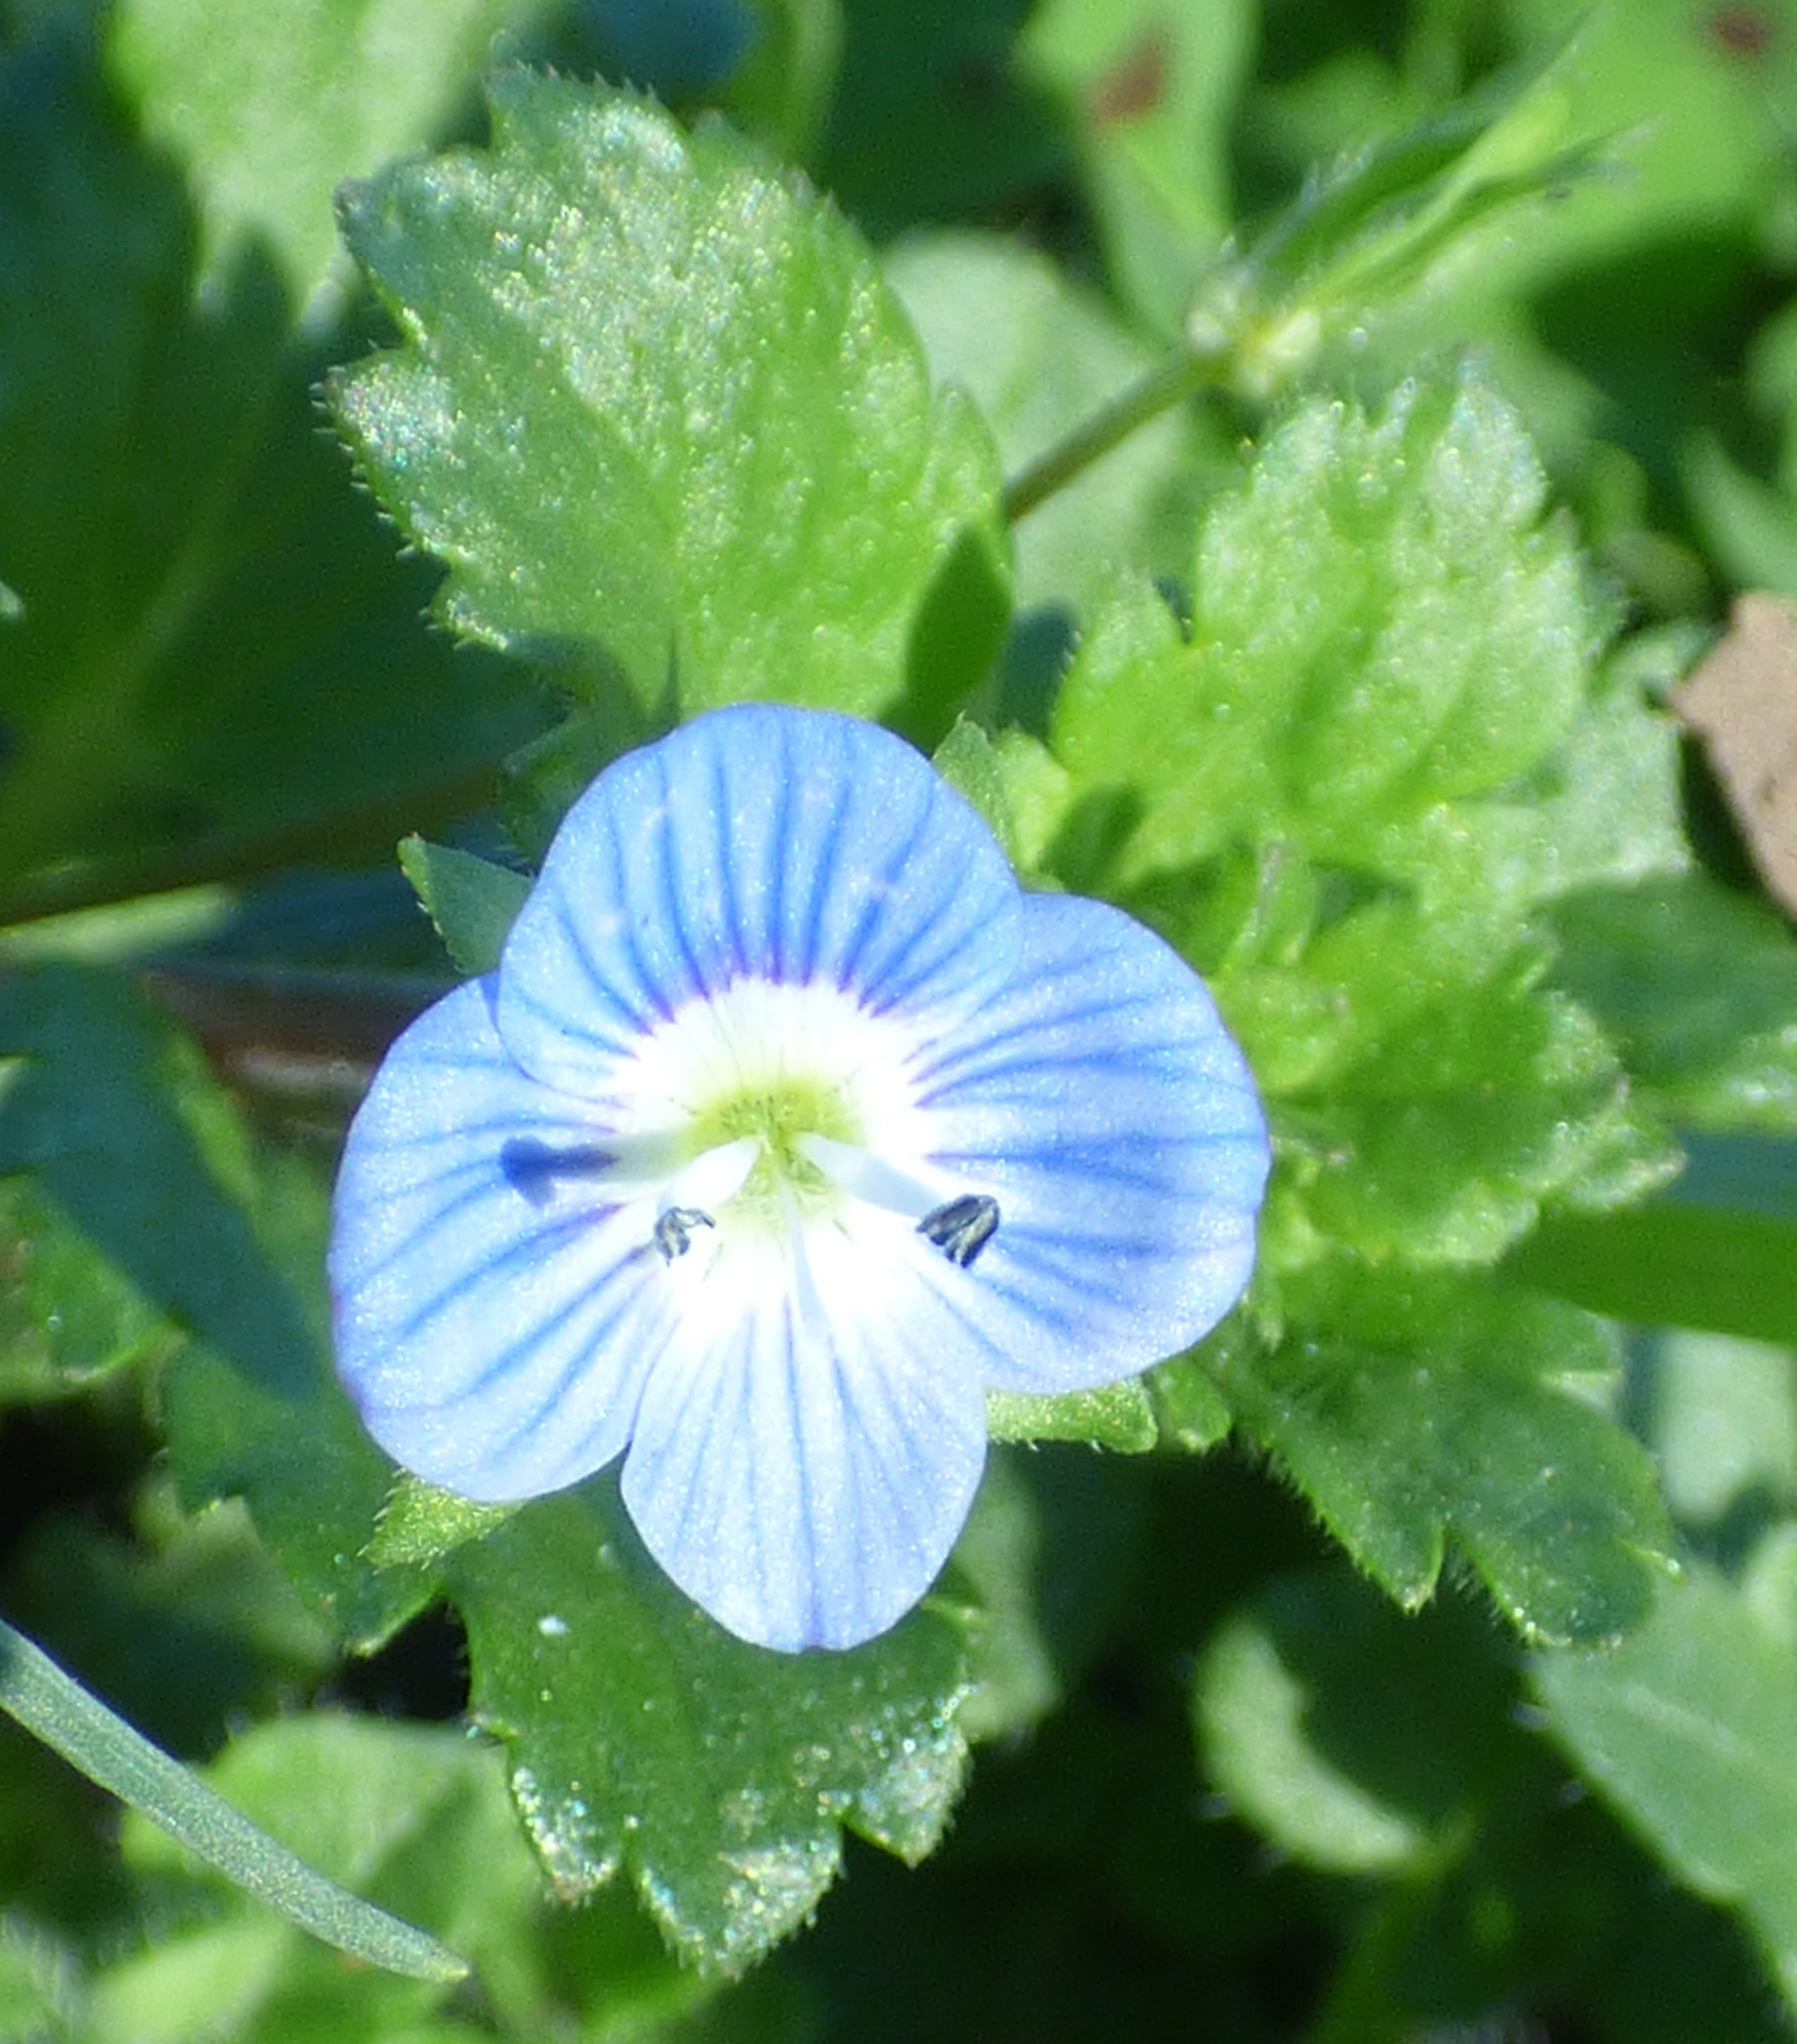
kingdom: Plantae
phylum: Tracheophyta
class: Magnoliopsida
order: Lamiales
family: Plantaginaceae
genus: Veronica
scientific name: Veronica persica
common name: Common field-speedwell
